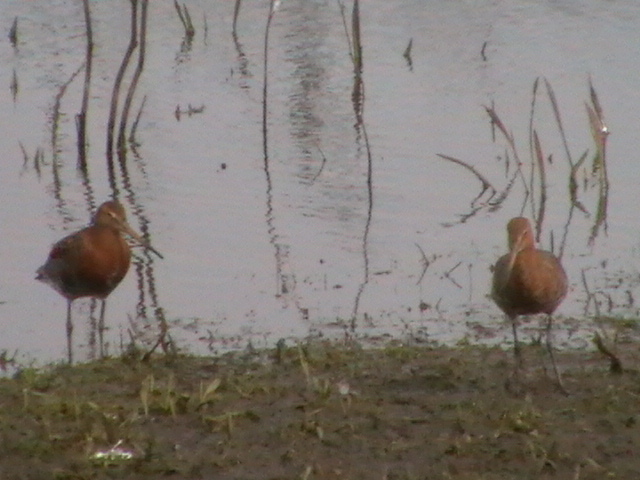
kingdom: Animalia
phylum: Chordata
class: Aves
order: Charadriiformes
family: Scolopacidae
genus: Limosa
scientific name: Limosa limosa
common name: Black-tailed godwit
